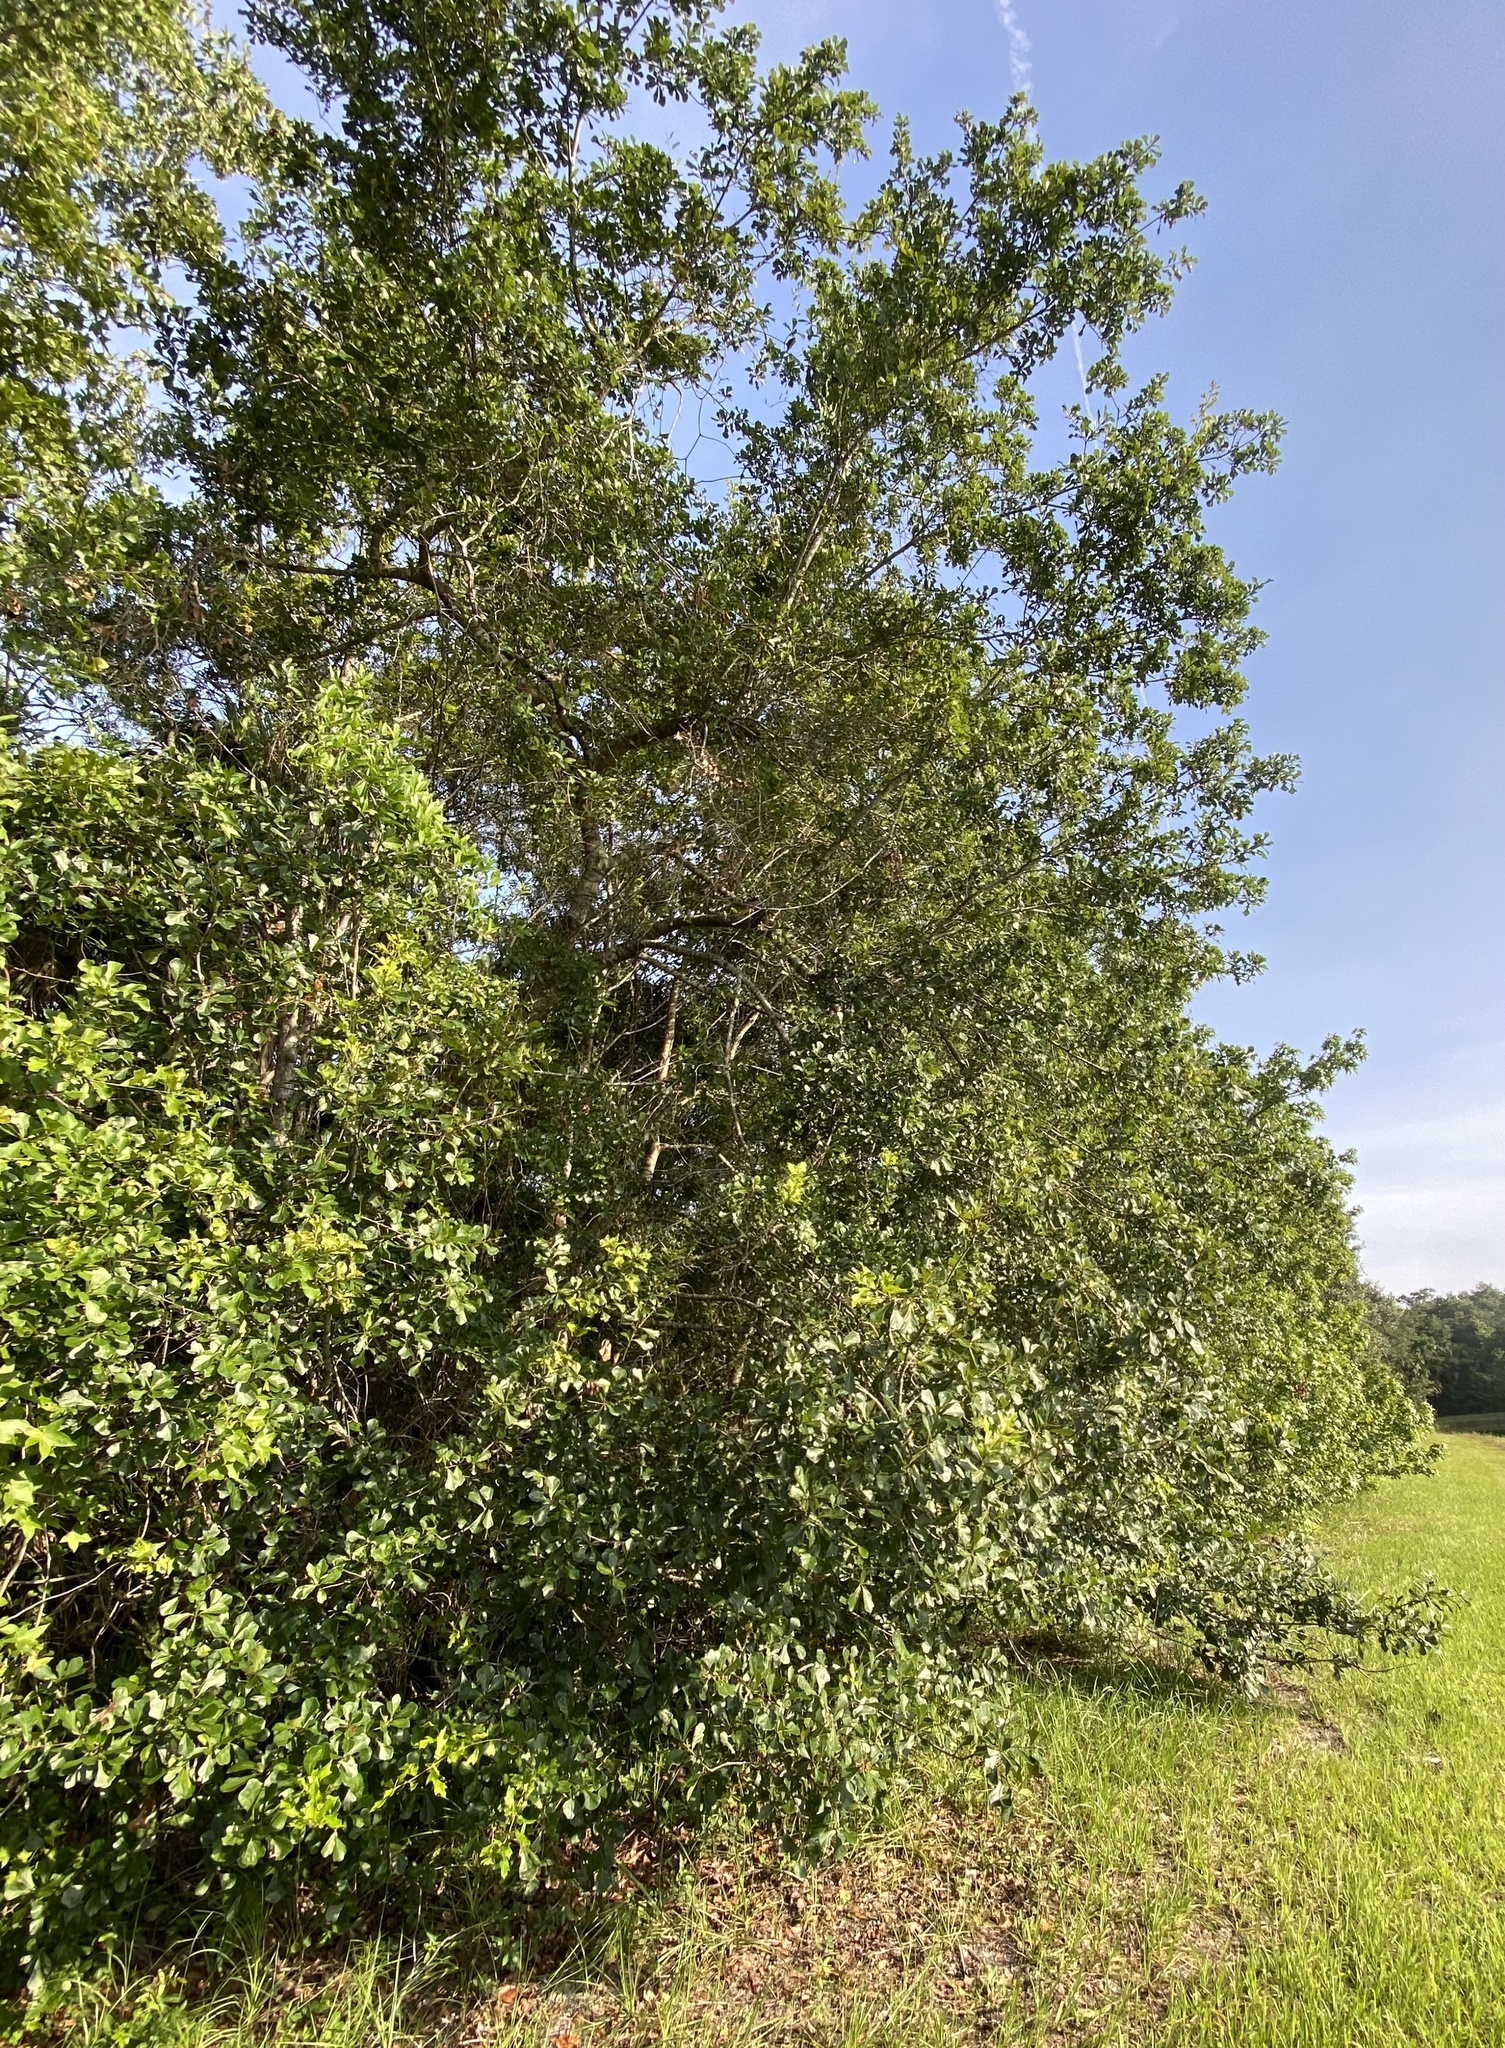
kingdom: Plantae
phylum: Tracheophyta
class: Magnoliopsida
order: Fagales
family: Fagaceae
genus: Quercus
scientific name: Quercus nigra
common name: Water oak
